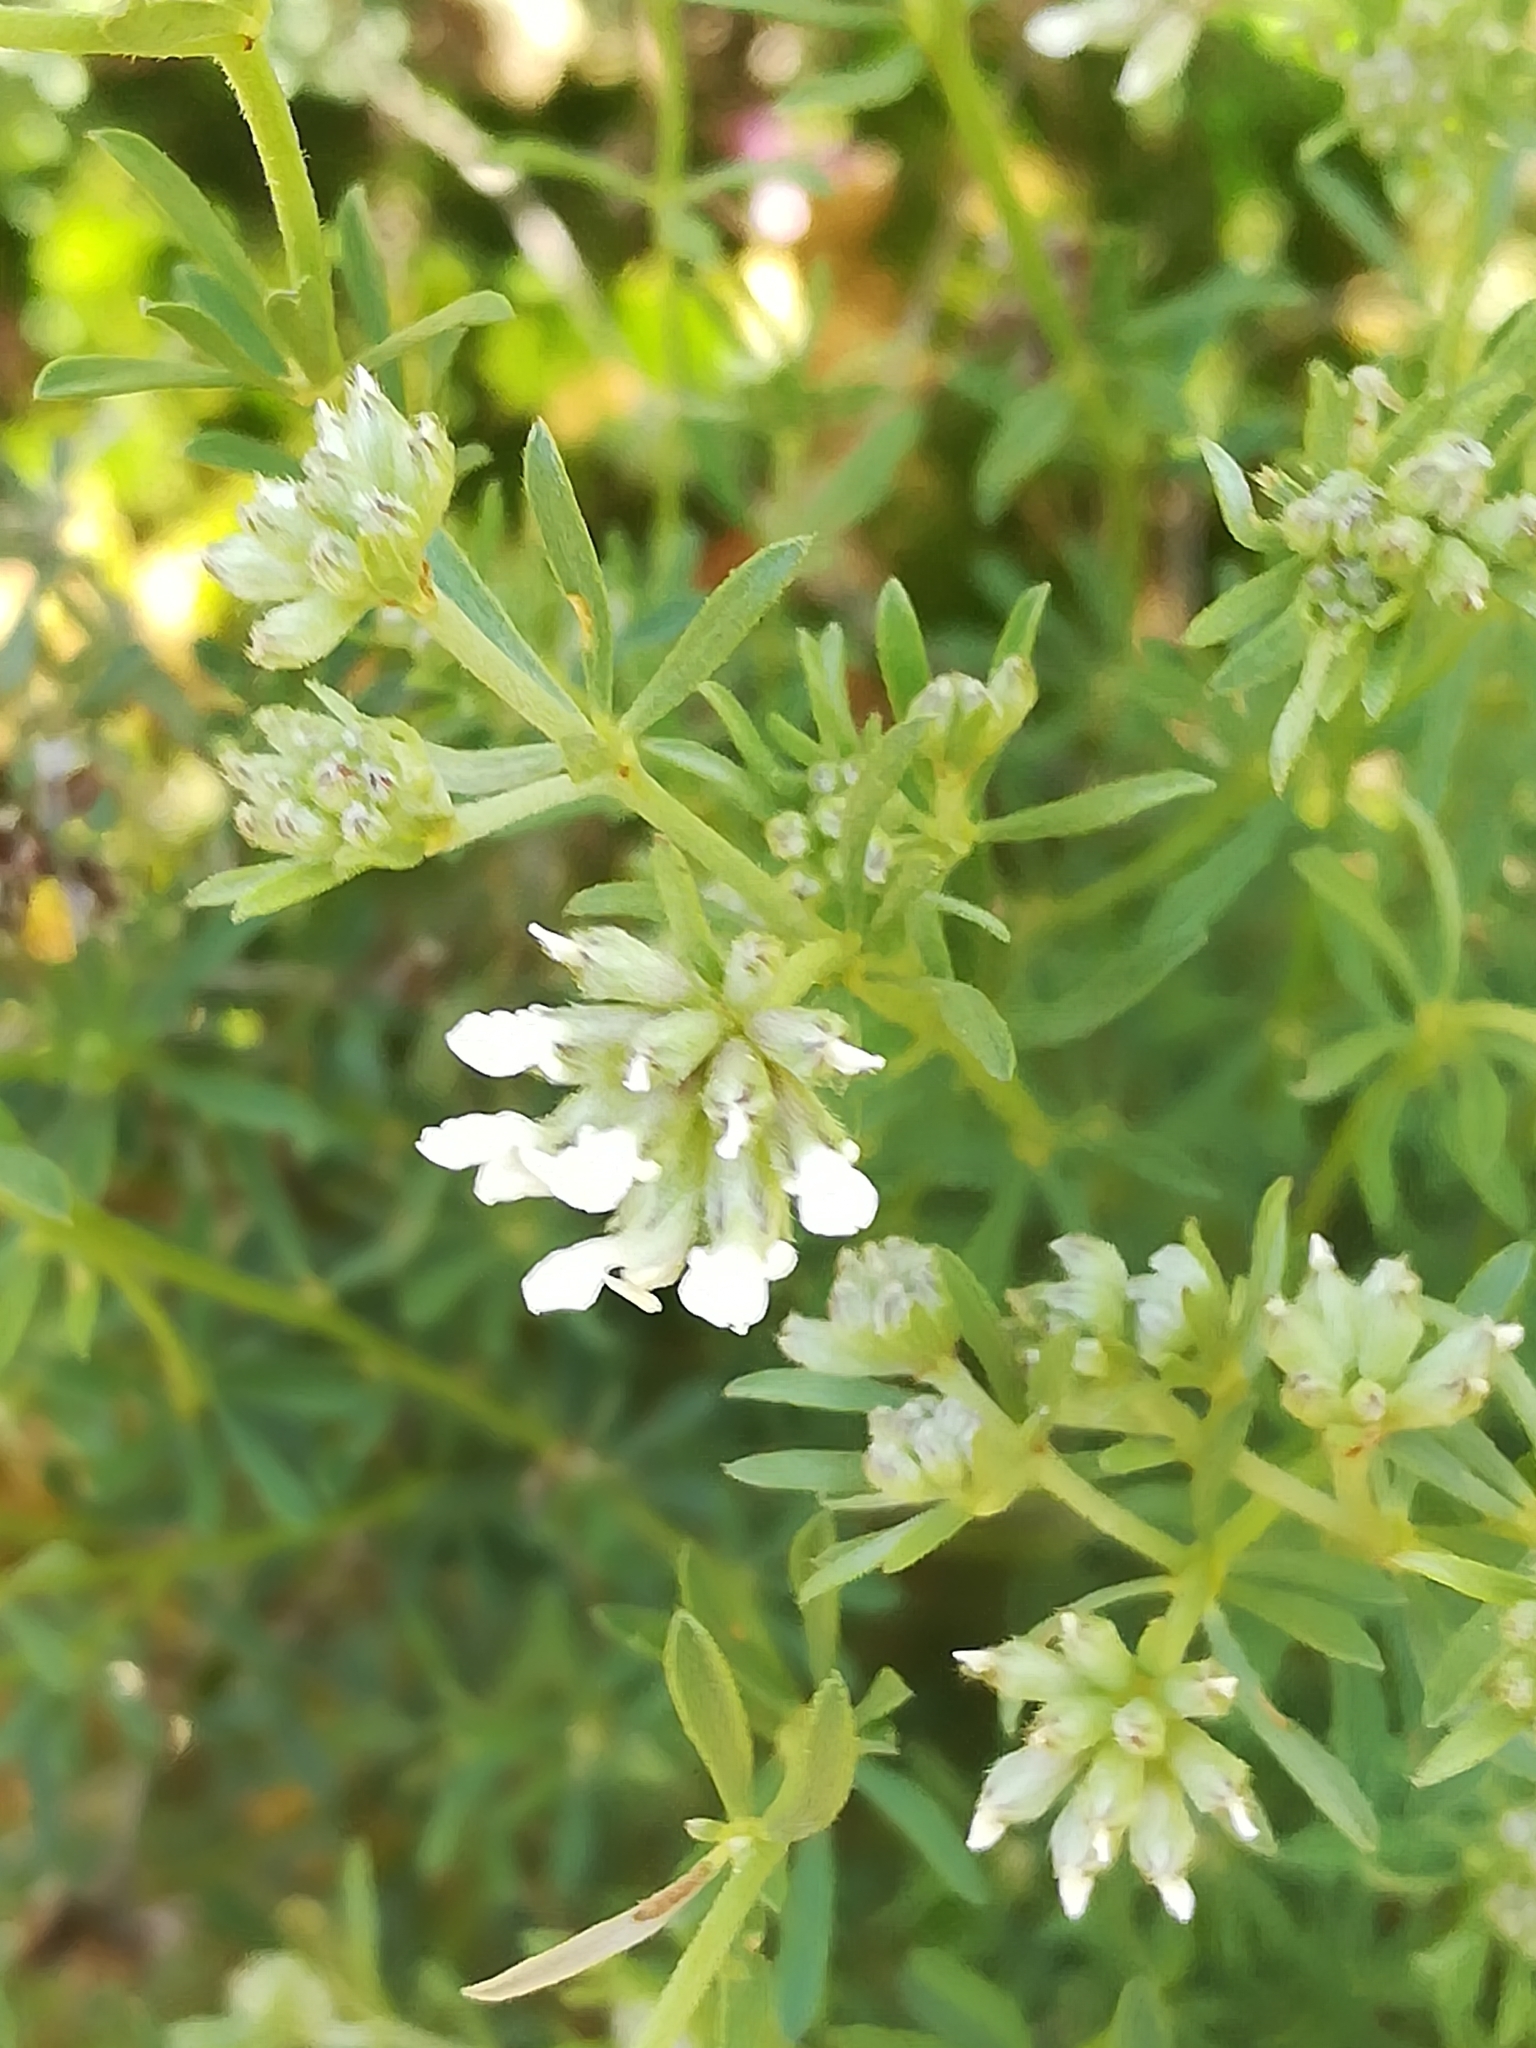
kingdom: Plantae
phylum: Tracheophyta
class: Magnoliopsida
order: Fabales
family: Fabaceae
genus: Lotus
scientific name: Lotus dorycnium
